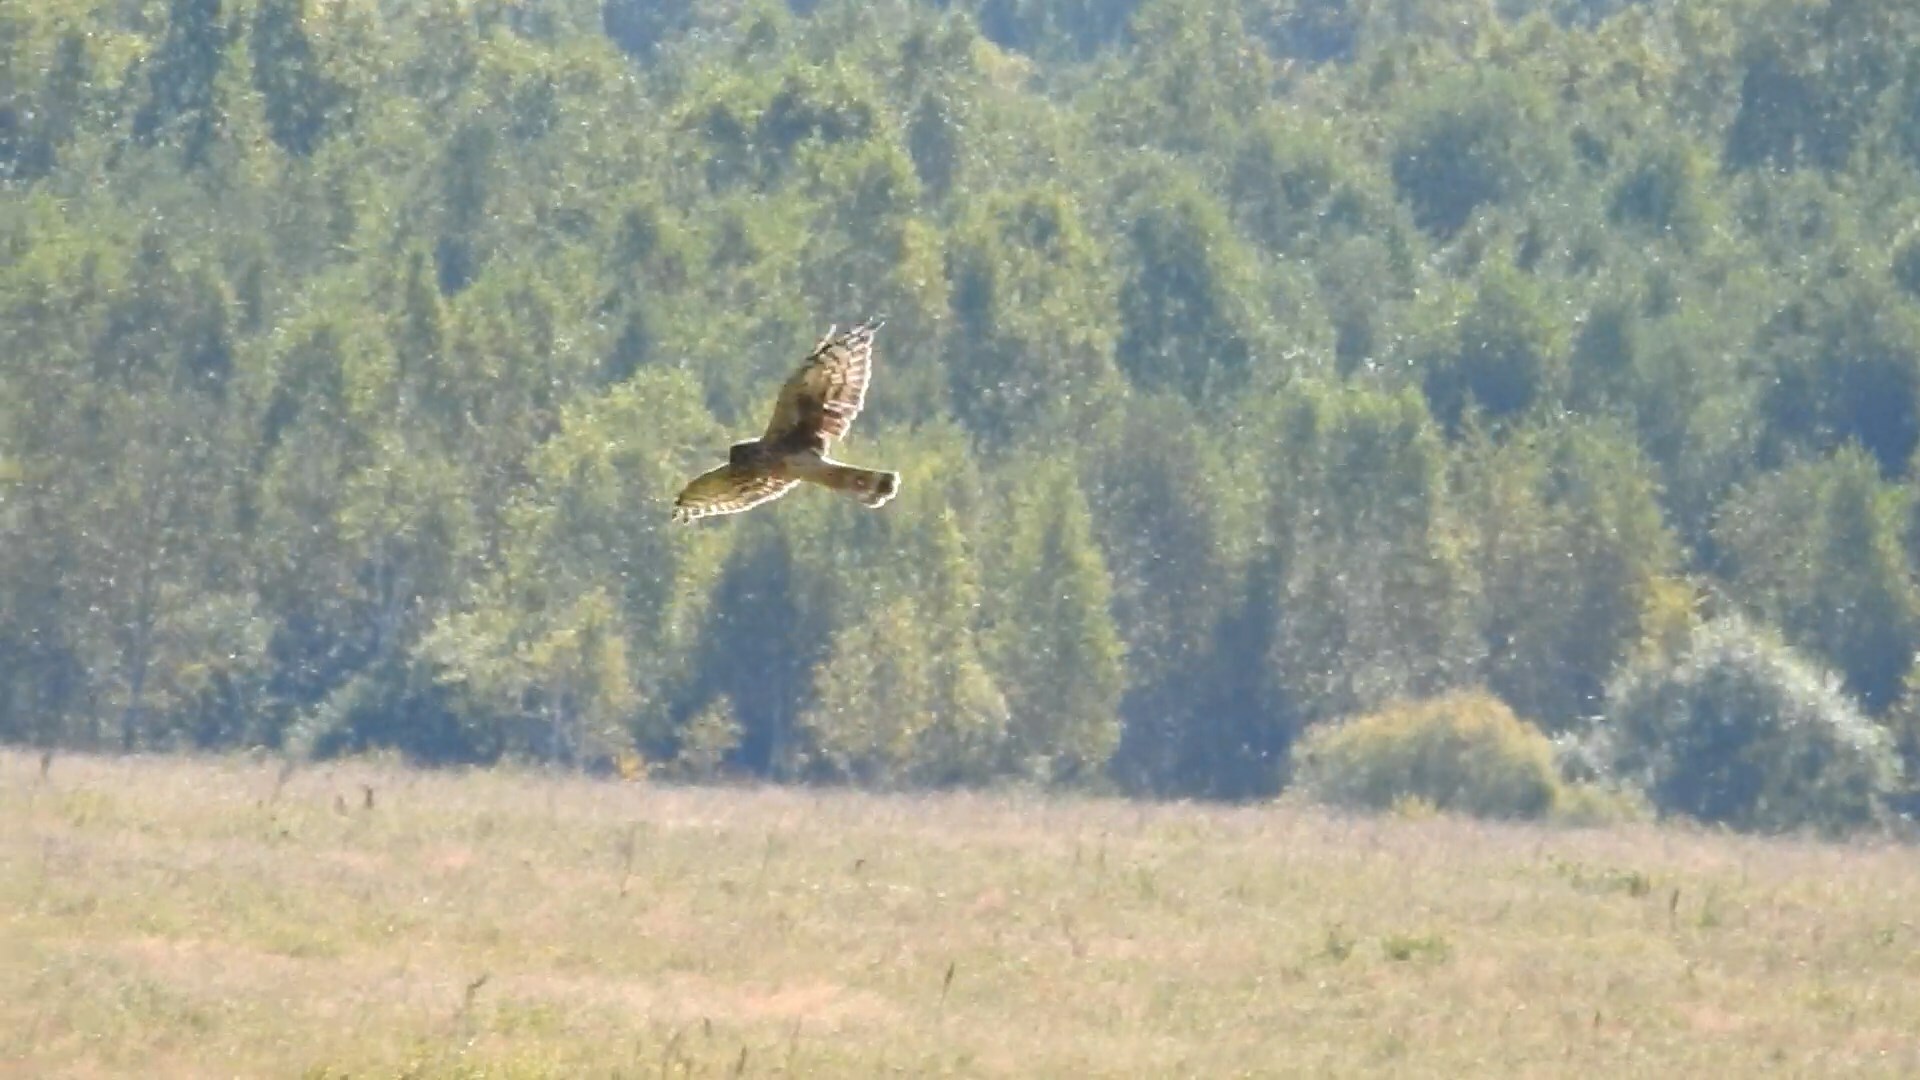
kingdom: Animalia
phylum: Chordata
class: Aves
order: Accipitriformes
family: Accipitridae
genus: Circus
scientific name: Circus cyaneus
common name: Hen harrier
